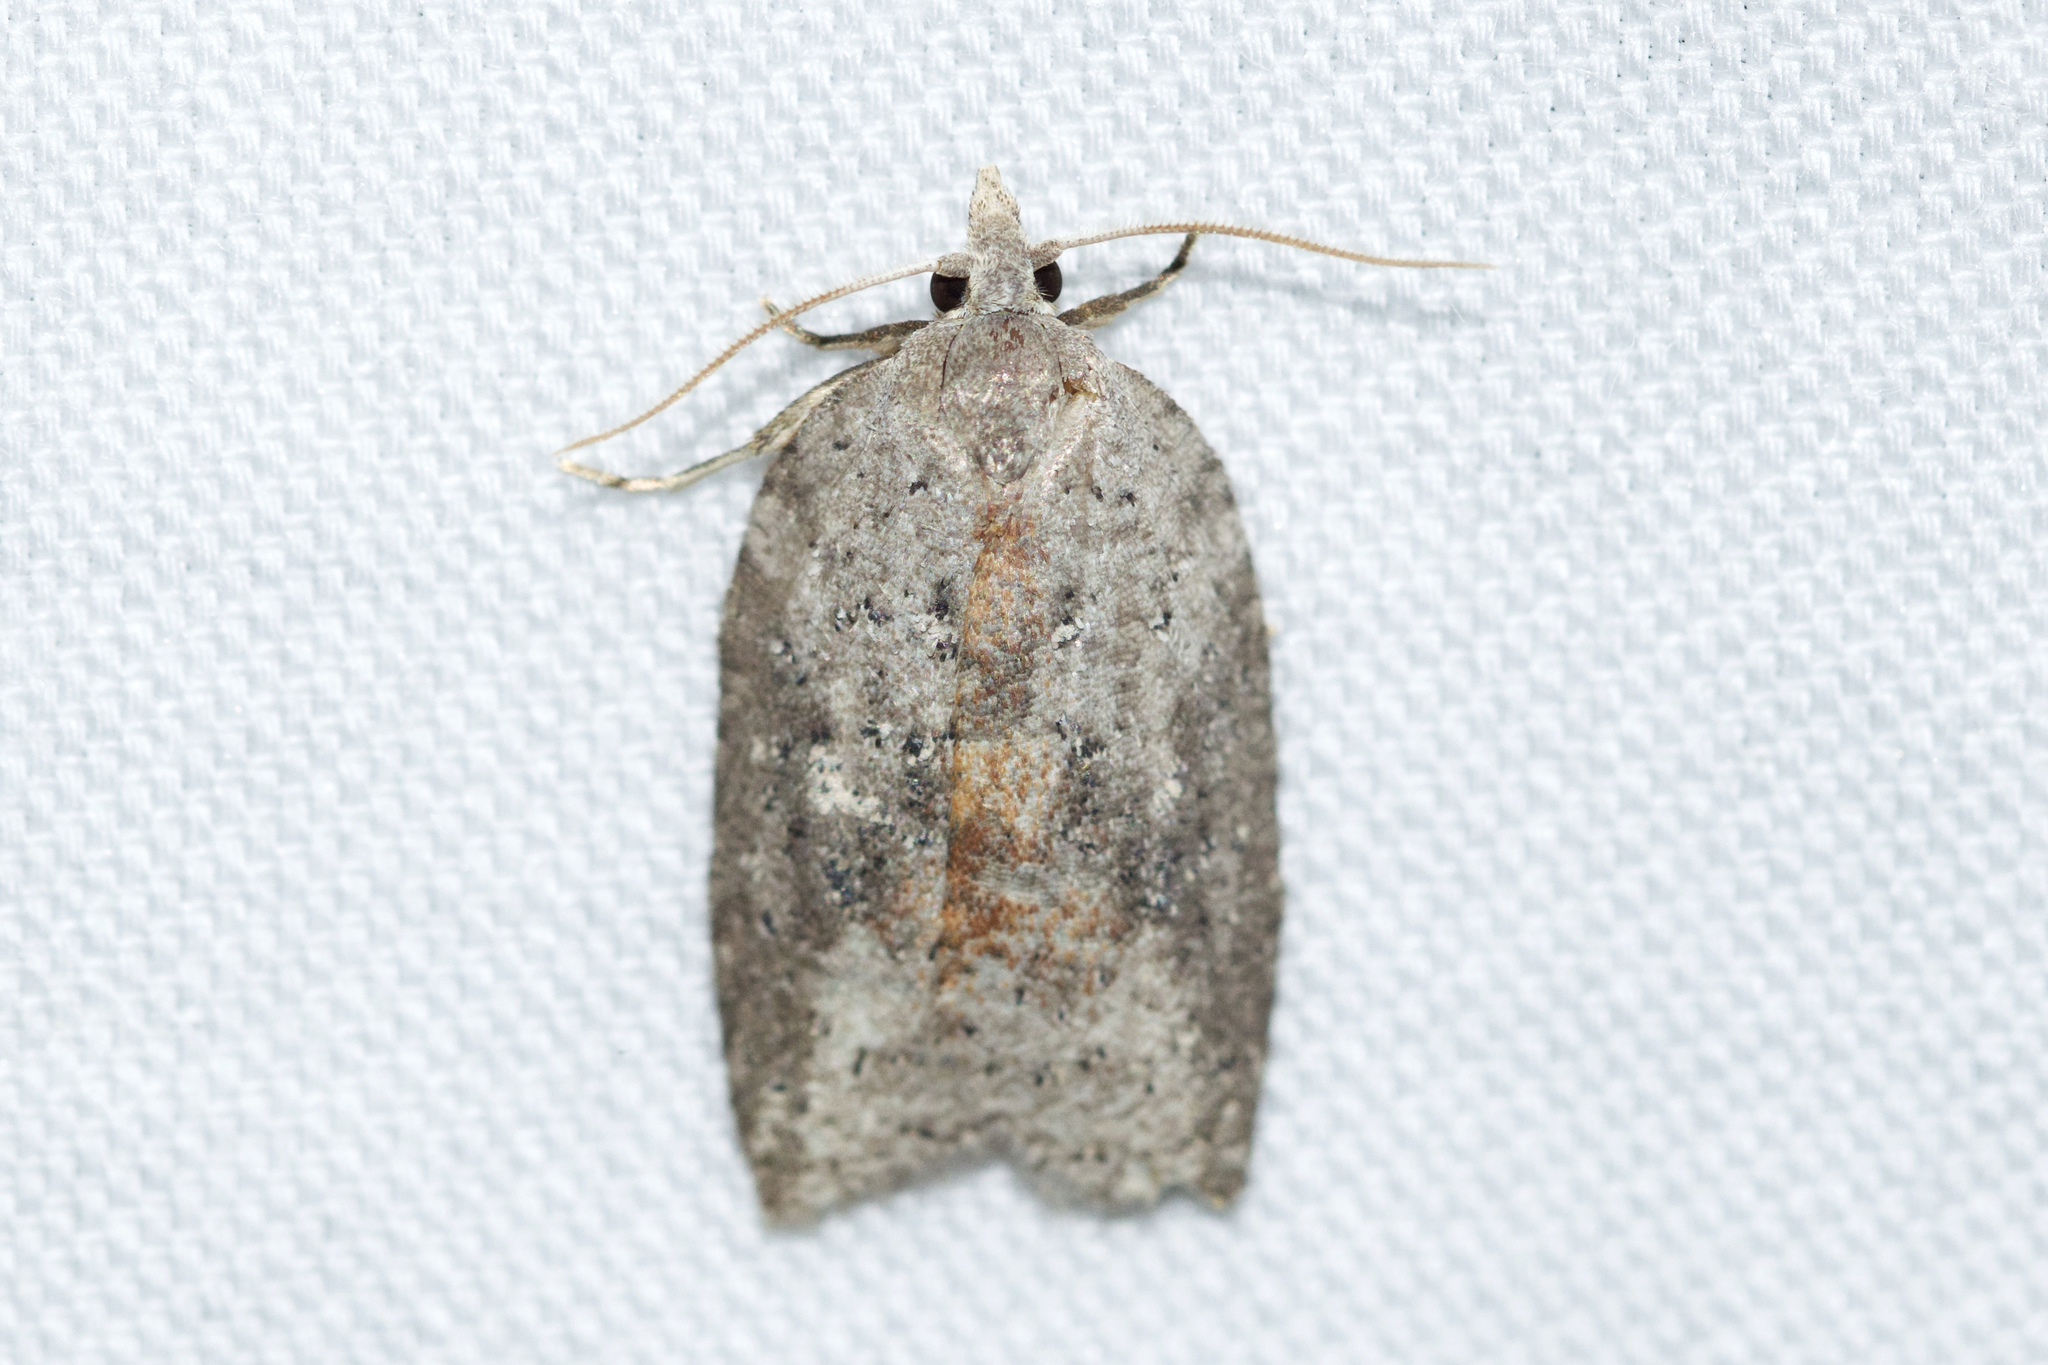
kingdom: Animalia
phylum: Arthropoda
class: Insecta
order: Lepidoptera
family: Tortricidae
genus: Amorbia
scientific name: Amorbia humerosana
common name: White-lined leafroller moth
